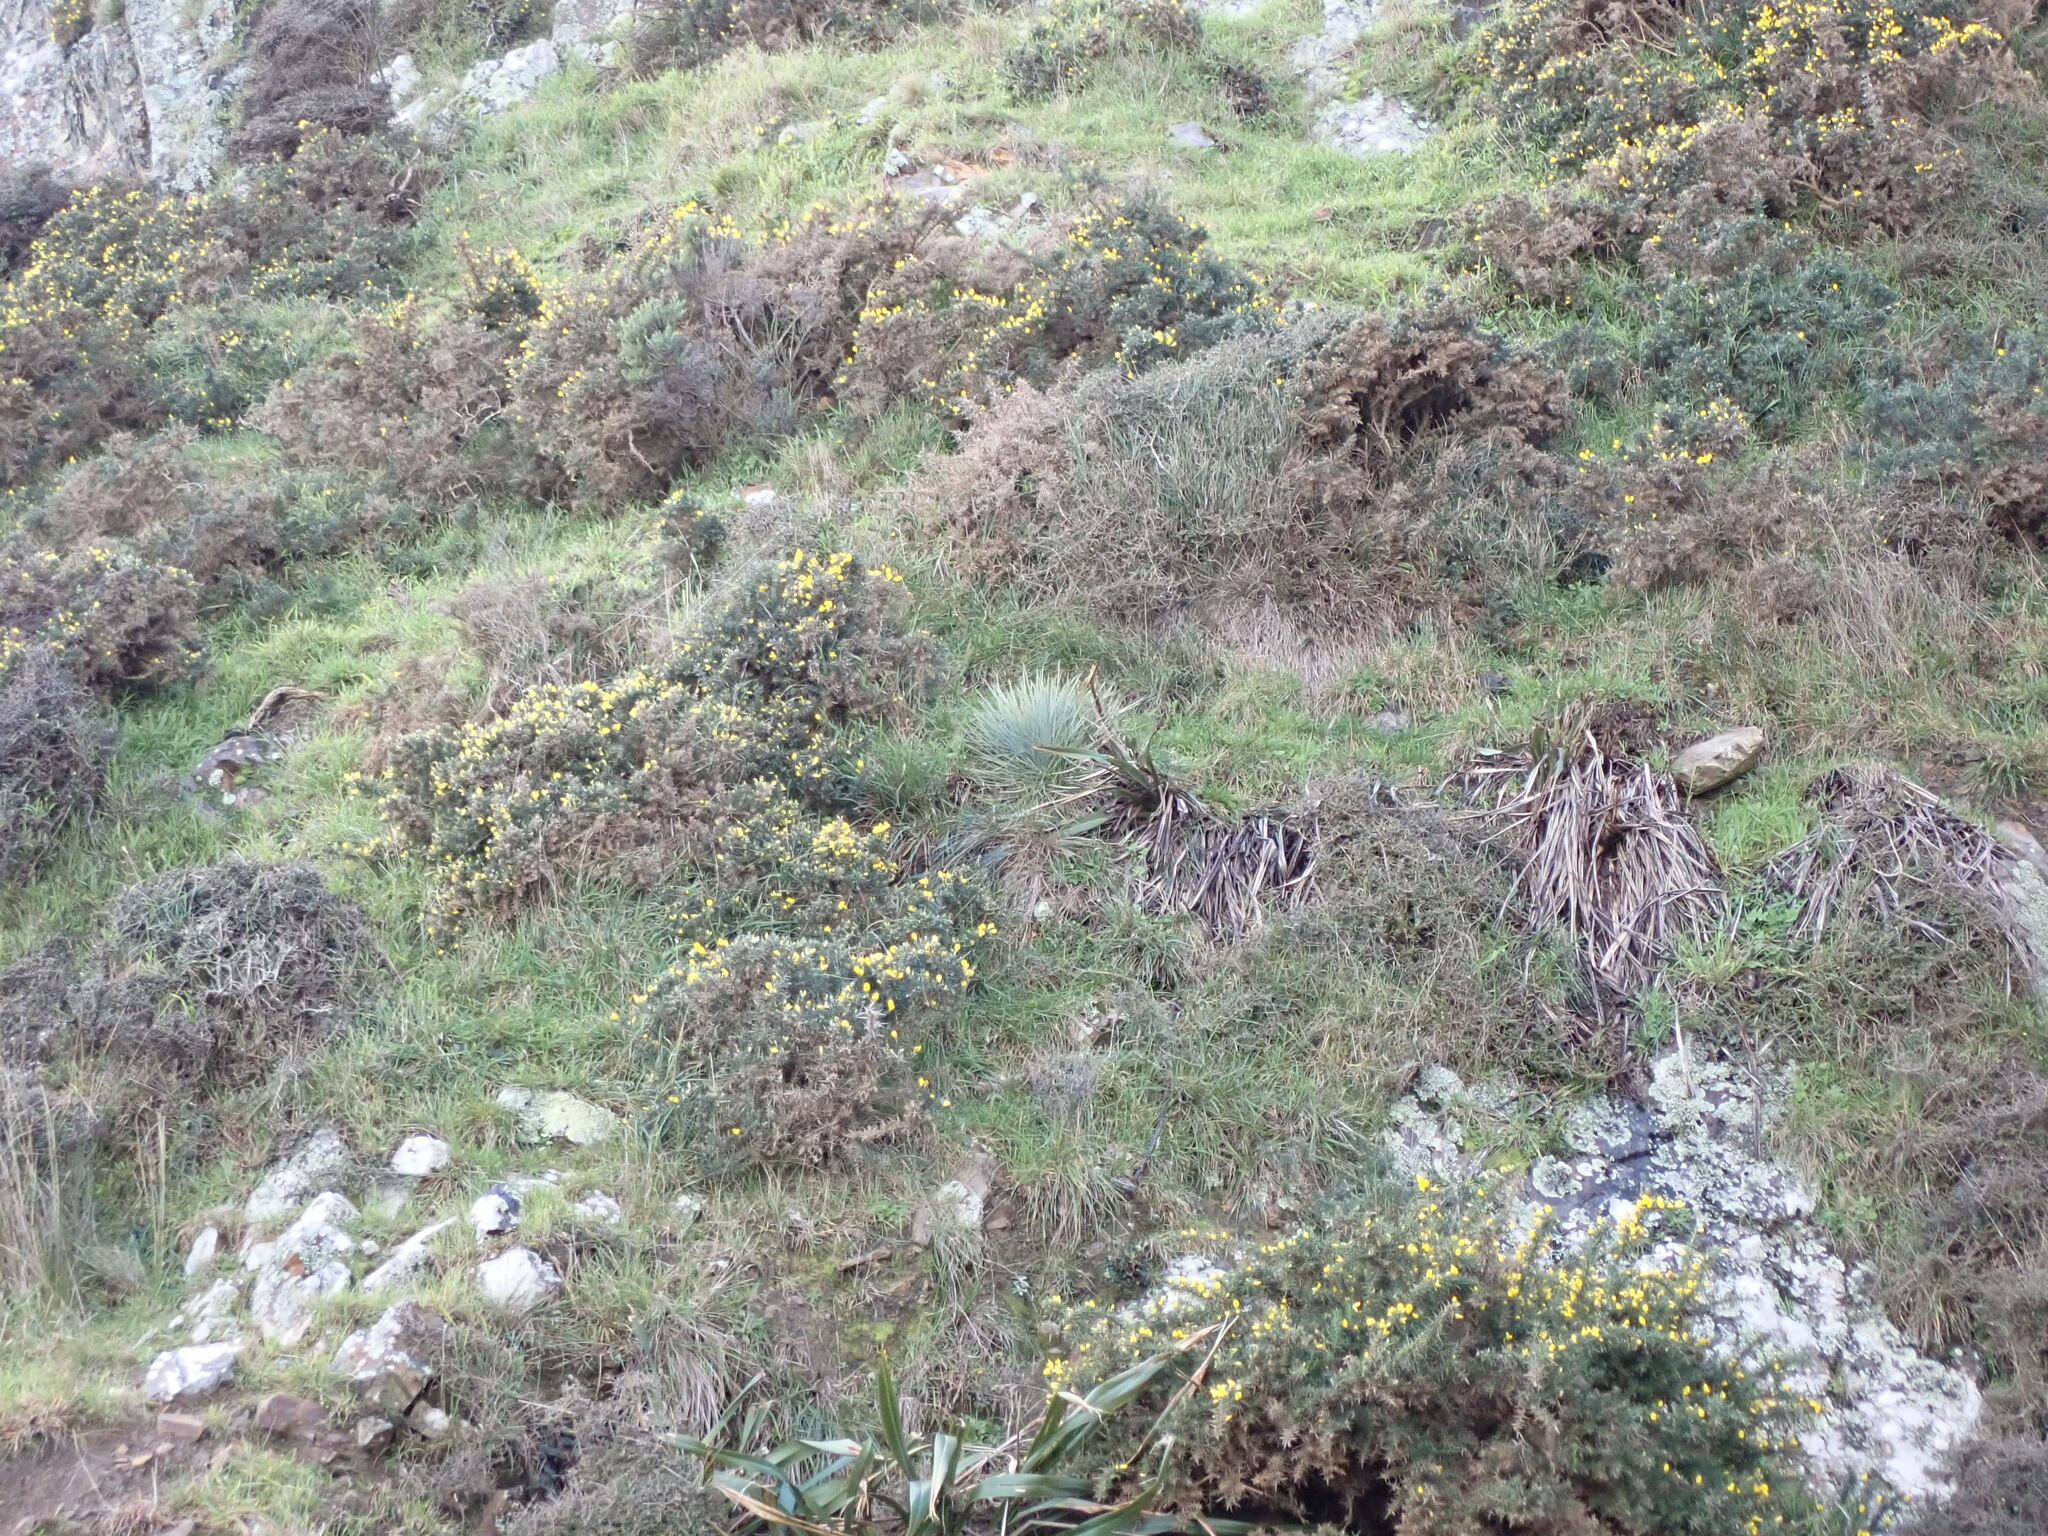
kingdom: Plantae
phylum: Tracheophyta
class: Magnoliopsida
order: Apiales
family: Apiaceae
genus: Aciphylla
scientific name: Aciphylla squarrosa
